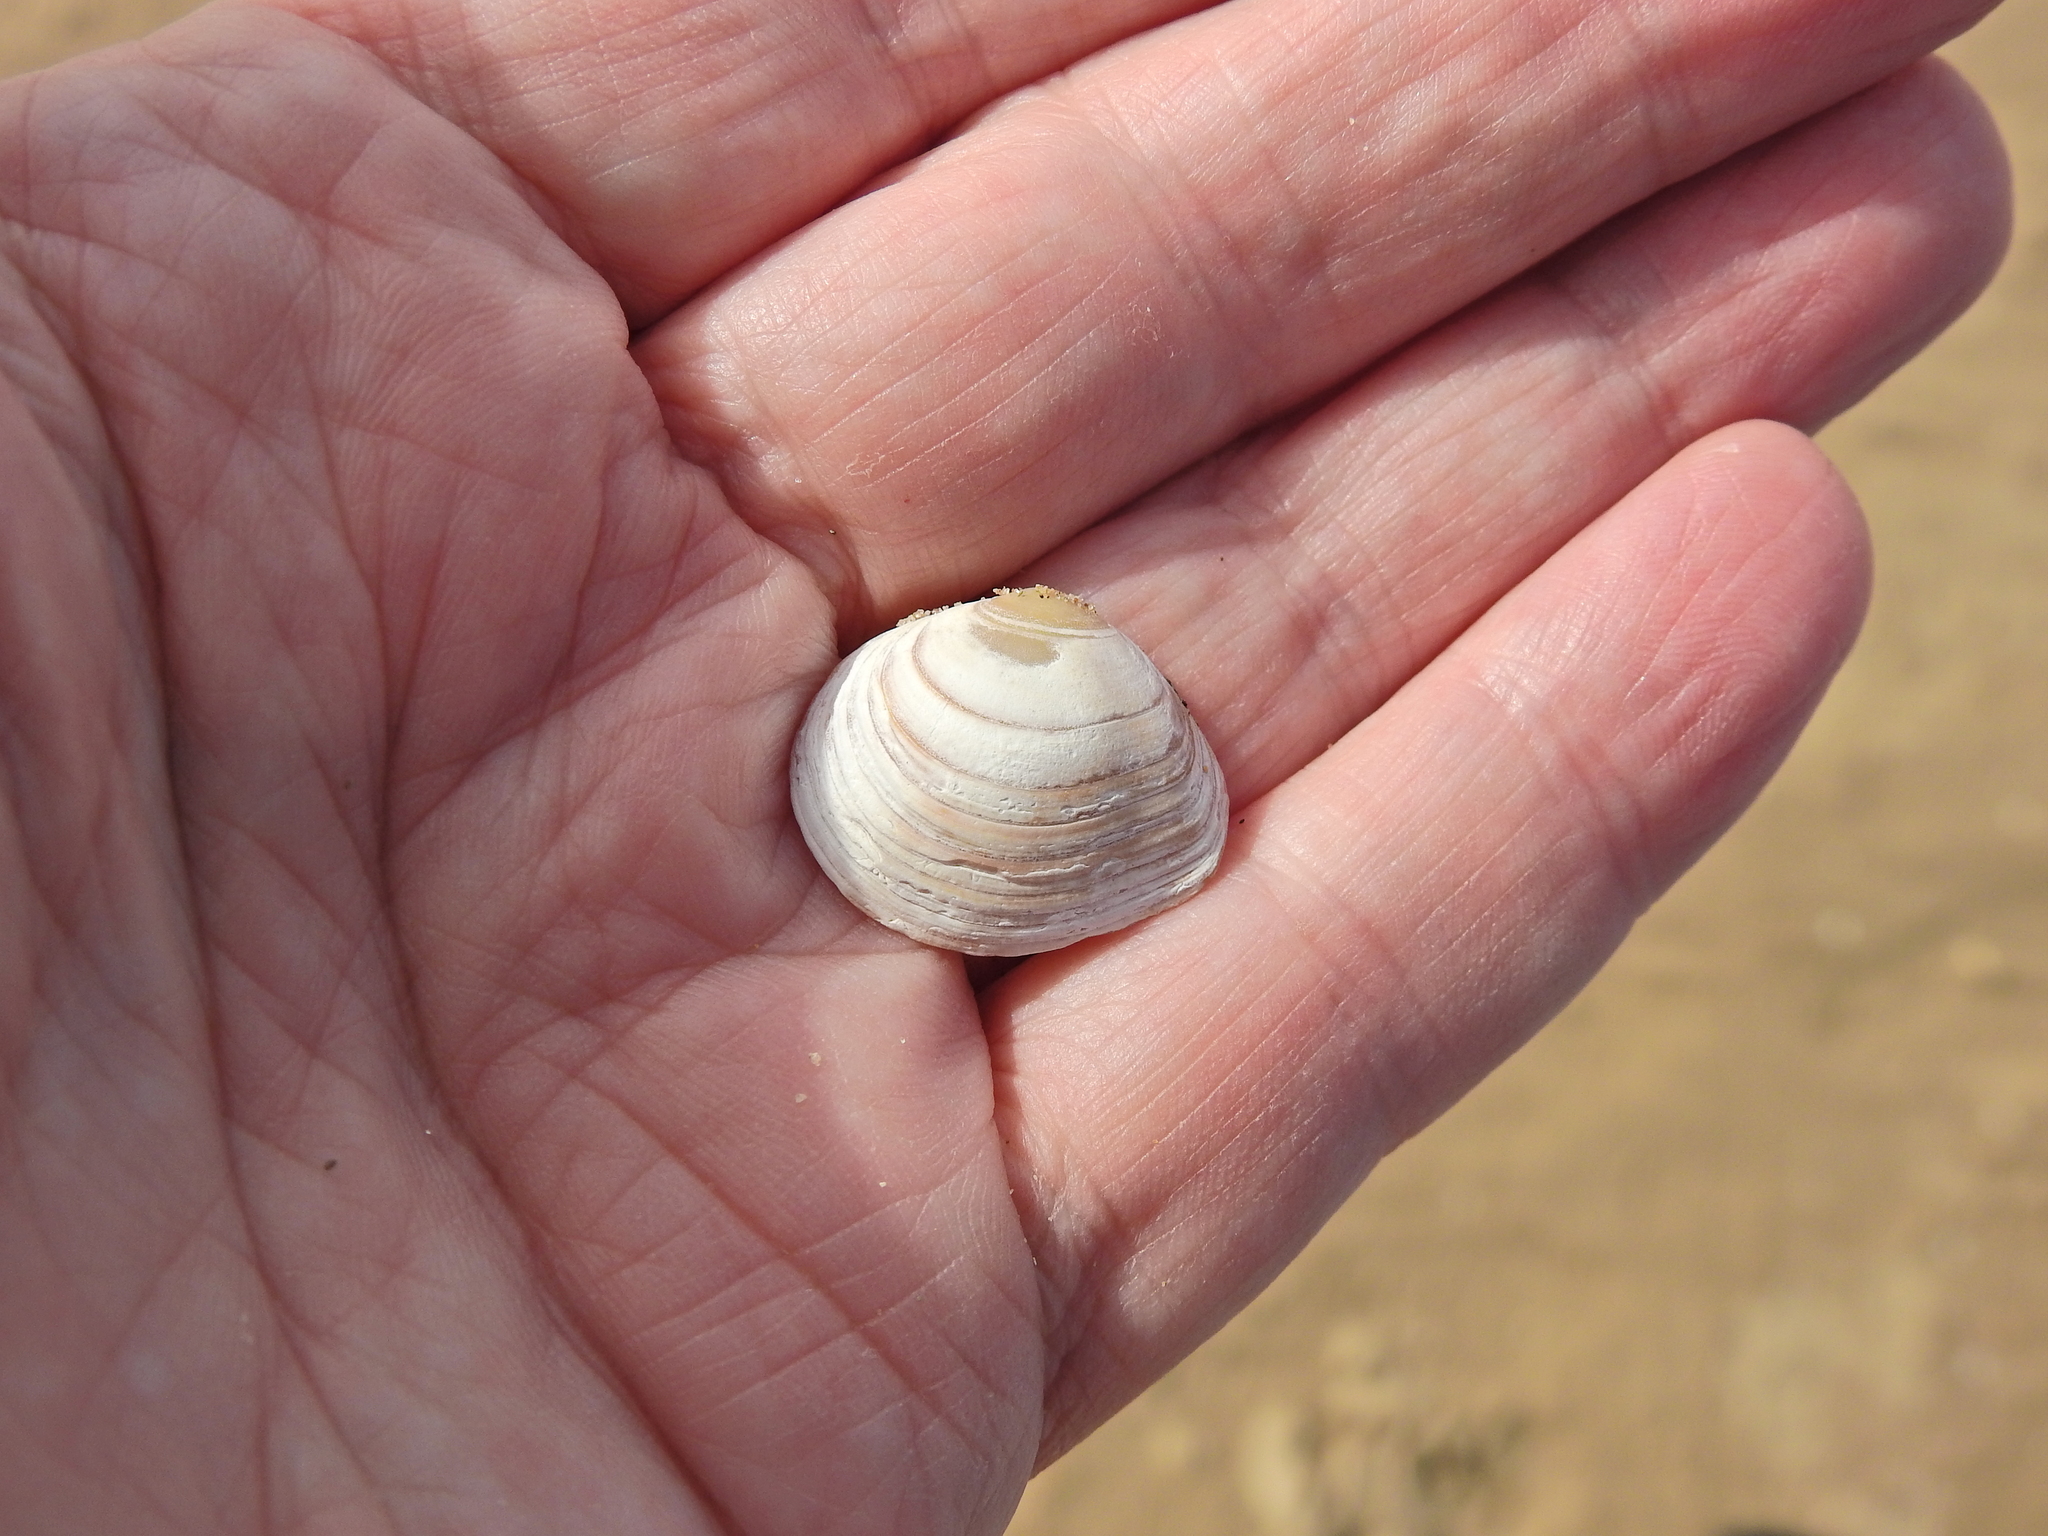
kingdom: Animalia
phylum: Mollusca
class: Bivalvia
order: Cardiida
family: Tellinidae
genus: Macoma
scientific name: Macoma balthica
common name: Baltic tellin
